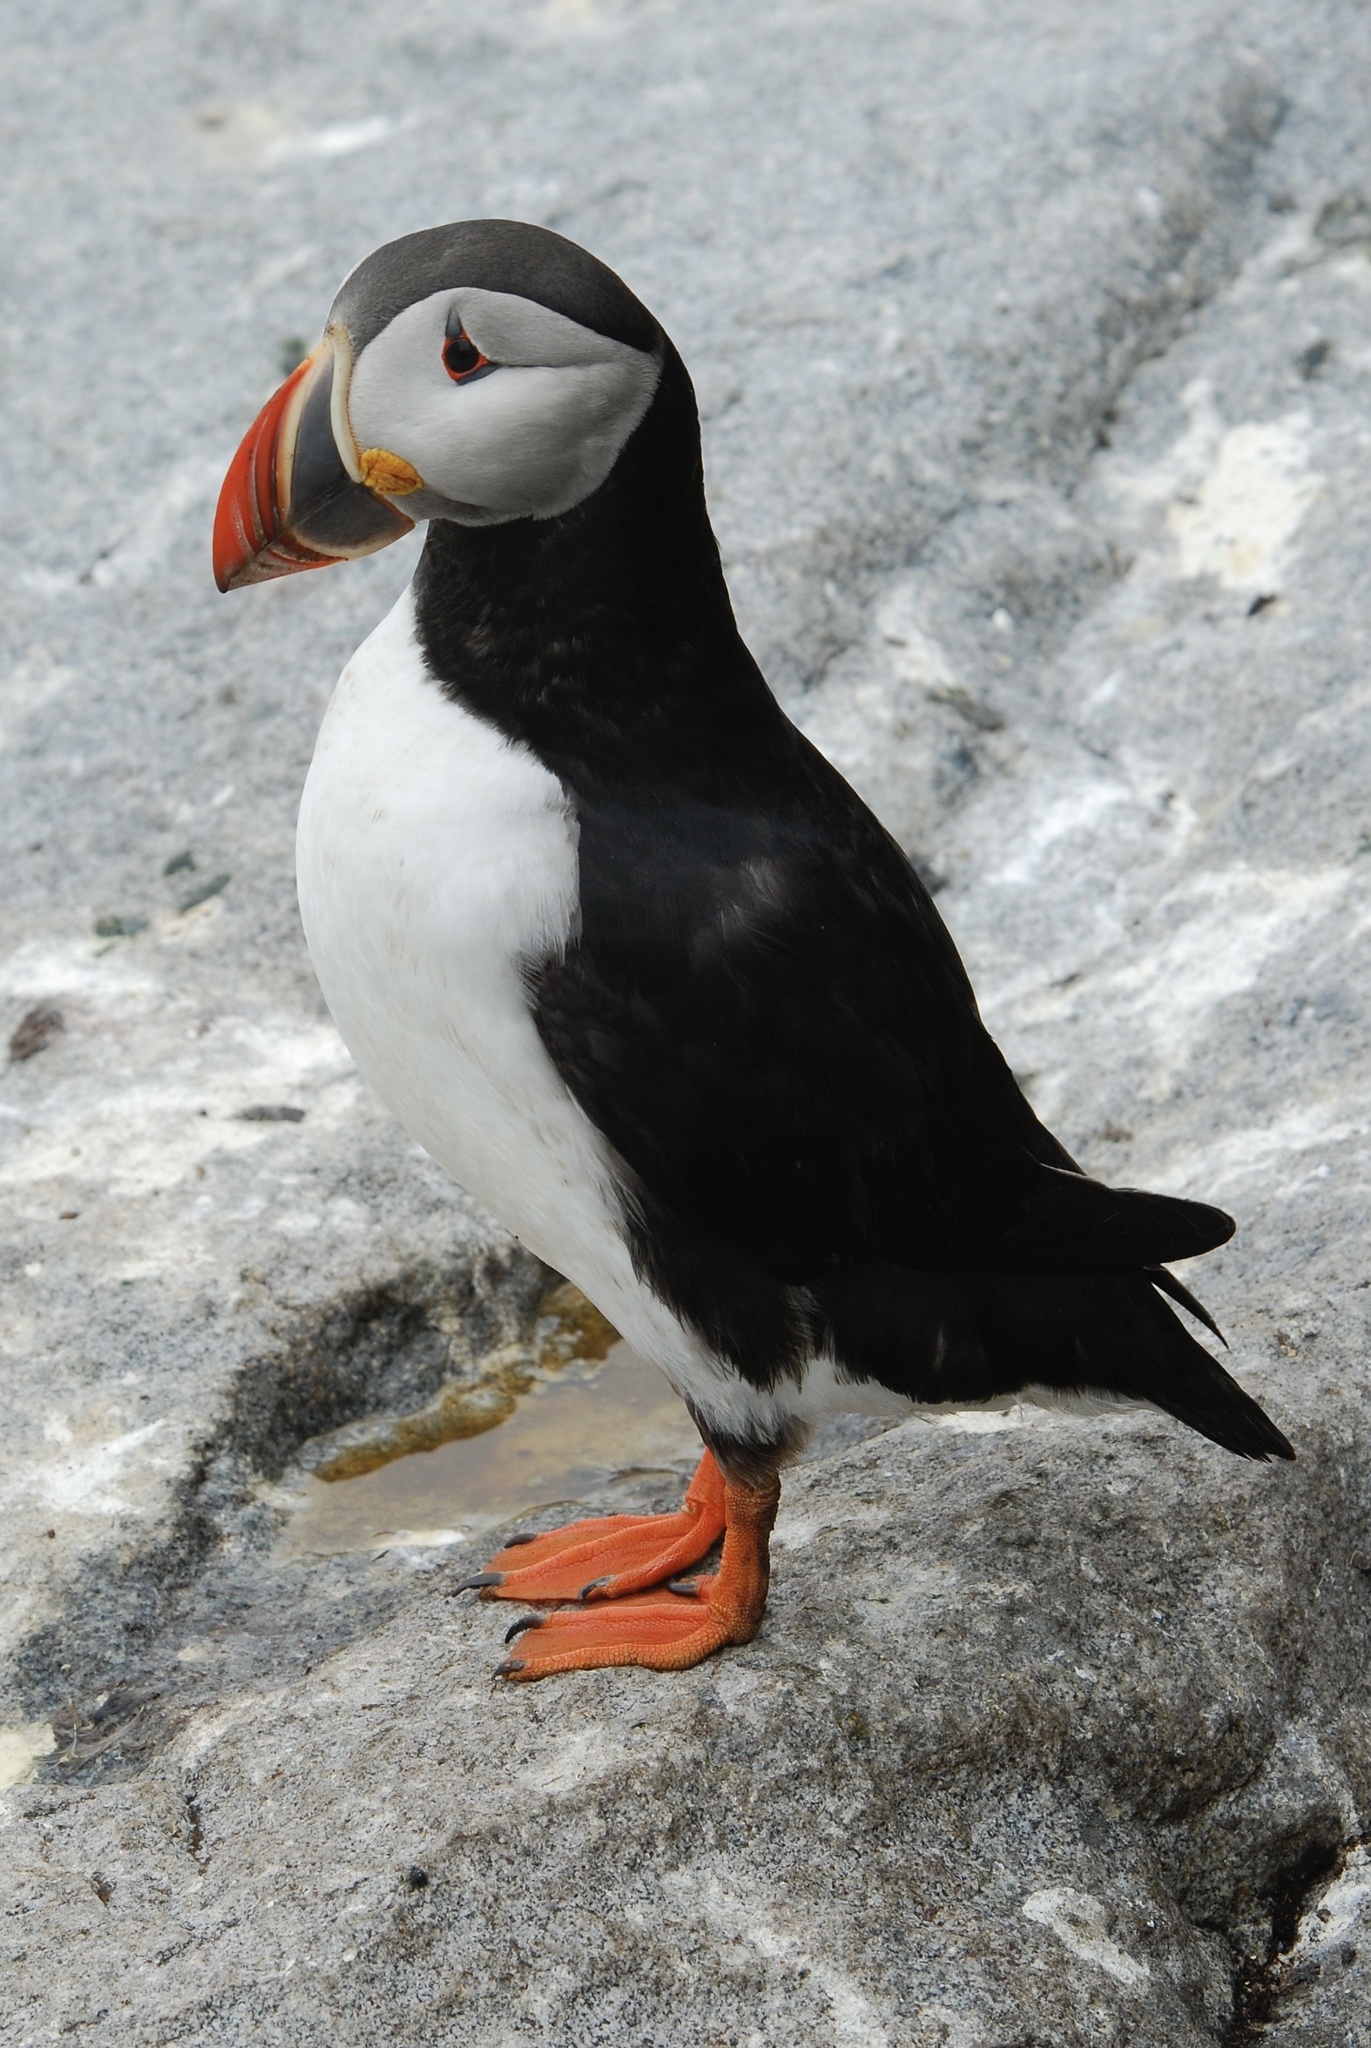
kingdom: Animalia
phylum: Chordata
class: Aves
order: Charadriiformes
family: Alcidae
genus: Fratercula
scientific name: Fratercula arctica
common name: Atlantic puffin
